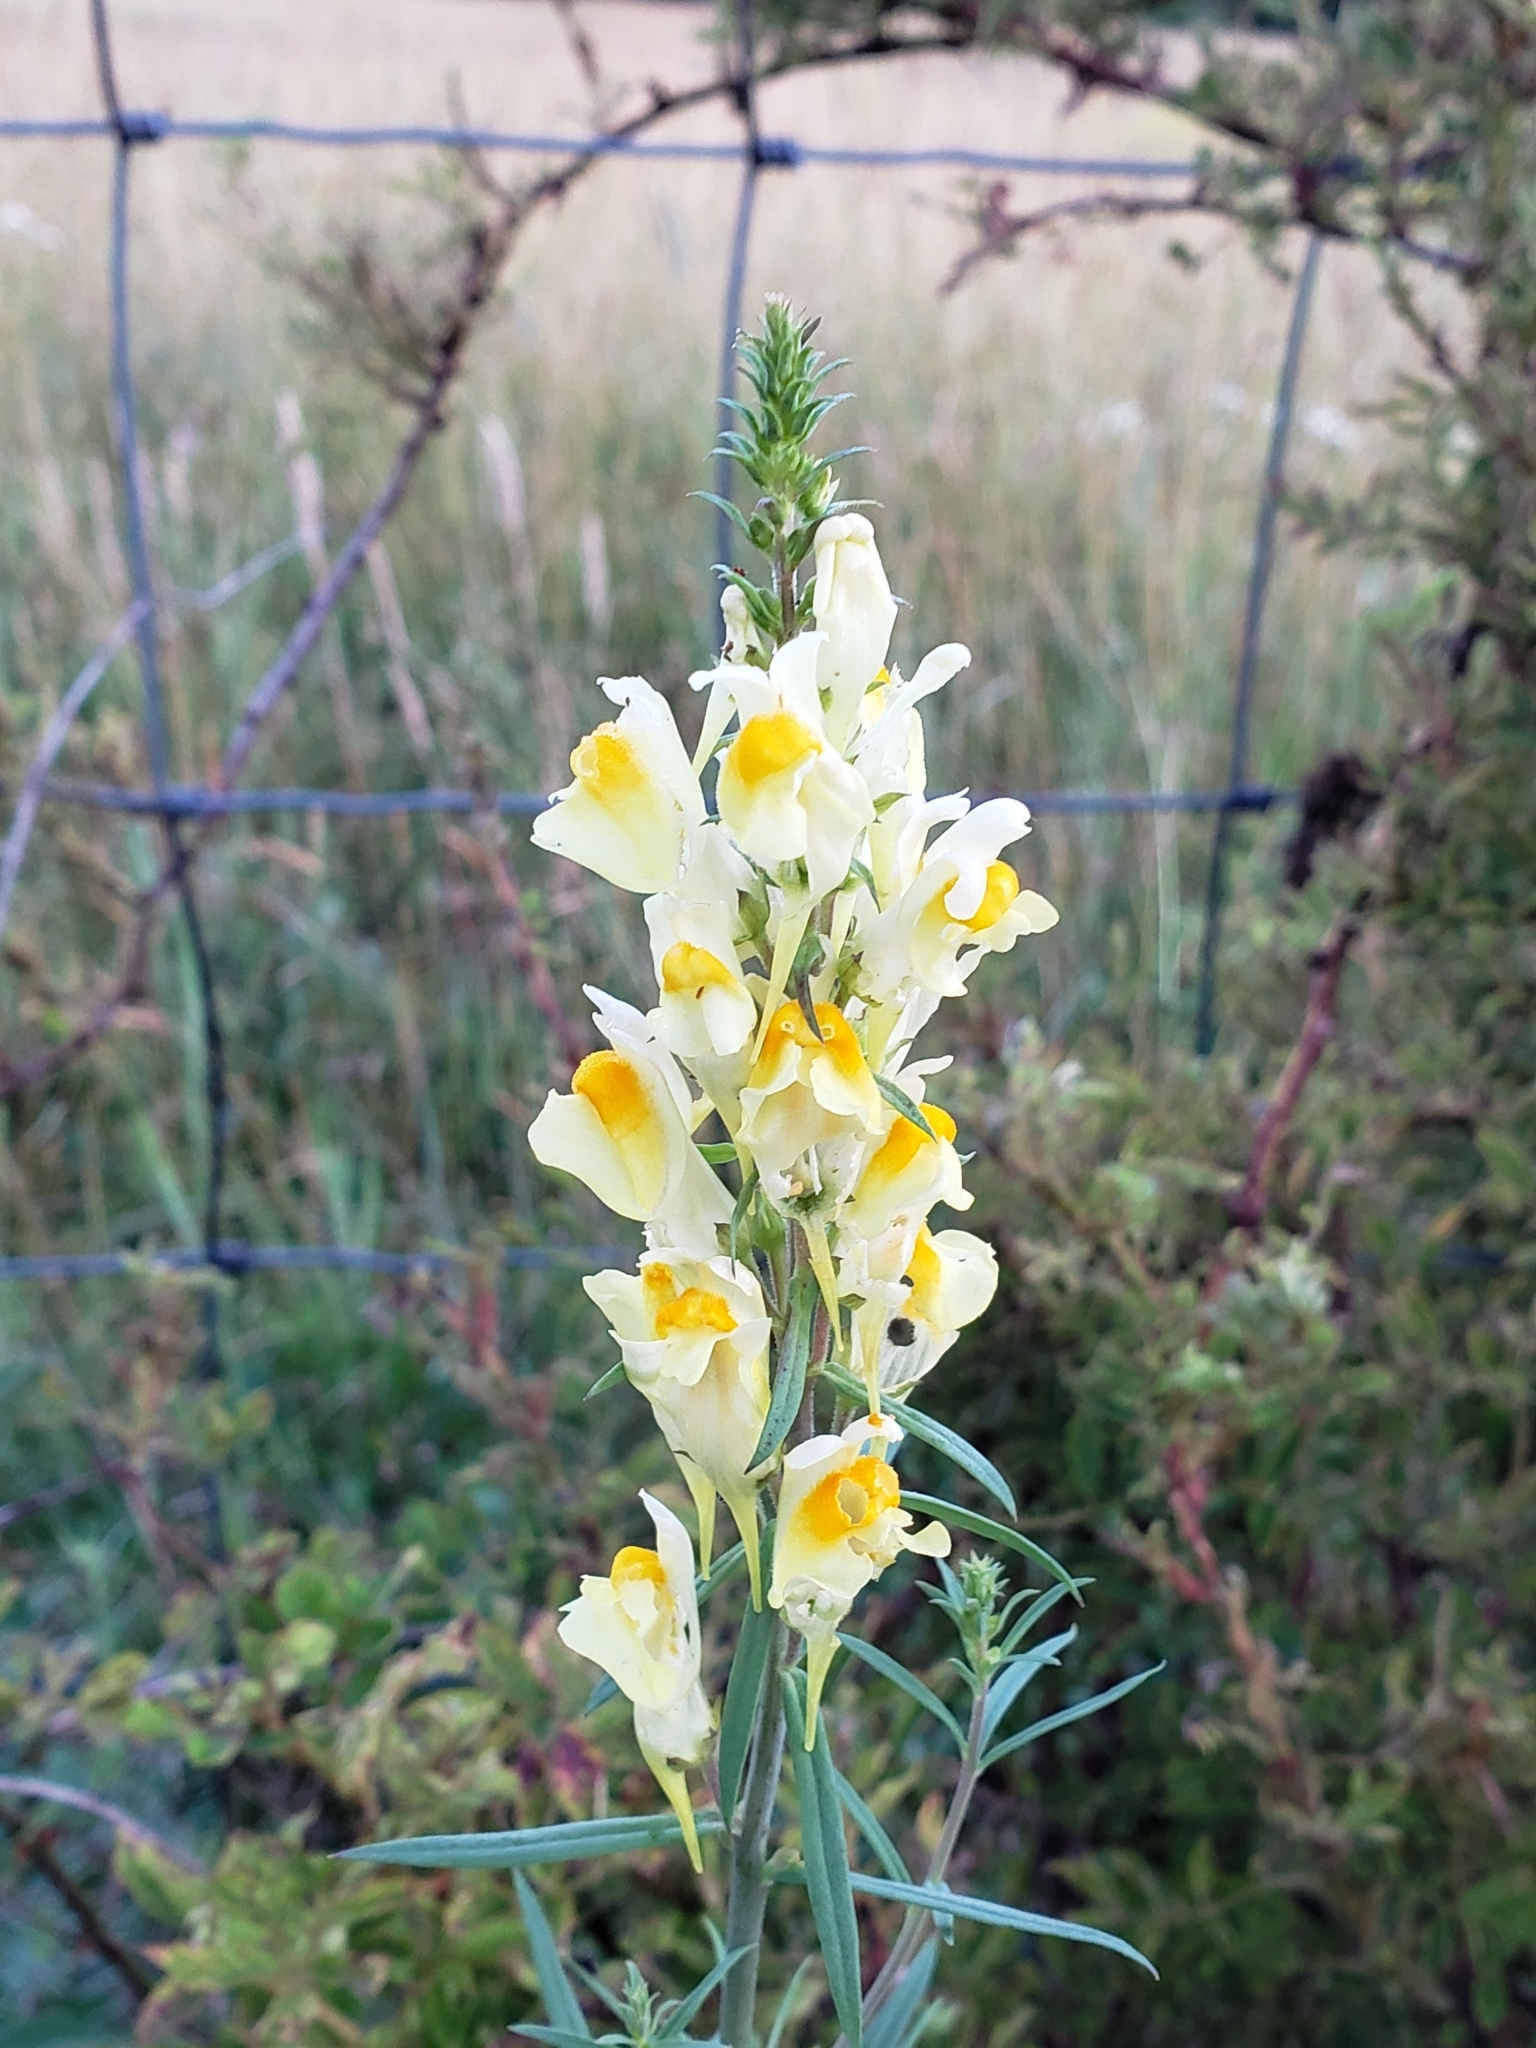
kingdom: Plantae
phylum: Tracheophyta
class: Magnoliopsida
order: Lamiales
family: Plantaginaceae
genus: Linaria
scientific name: Linaria vulgaris
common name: Butter and eggs
